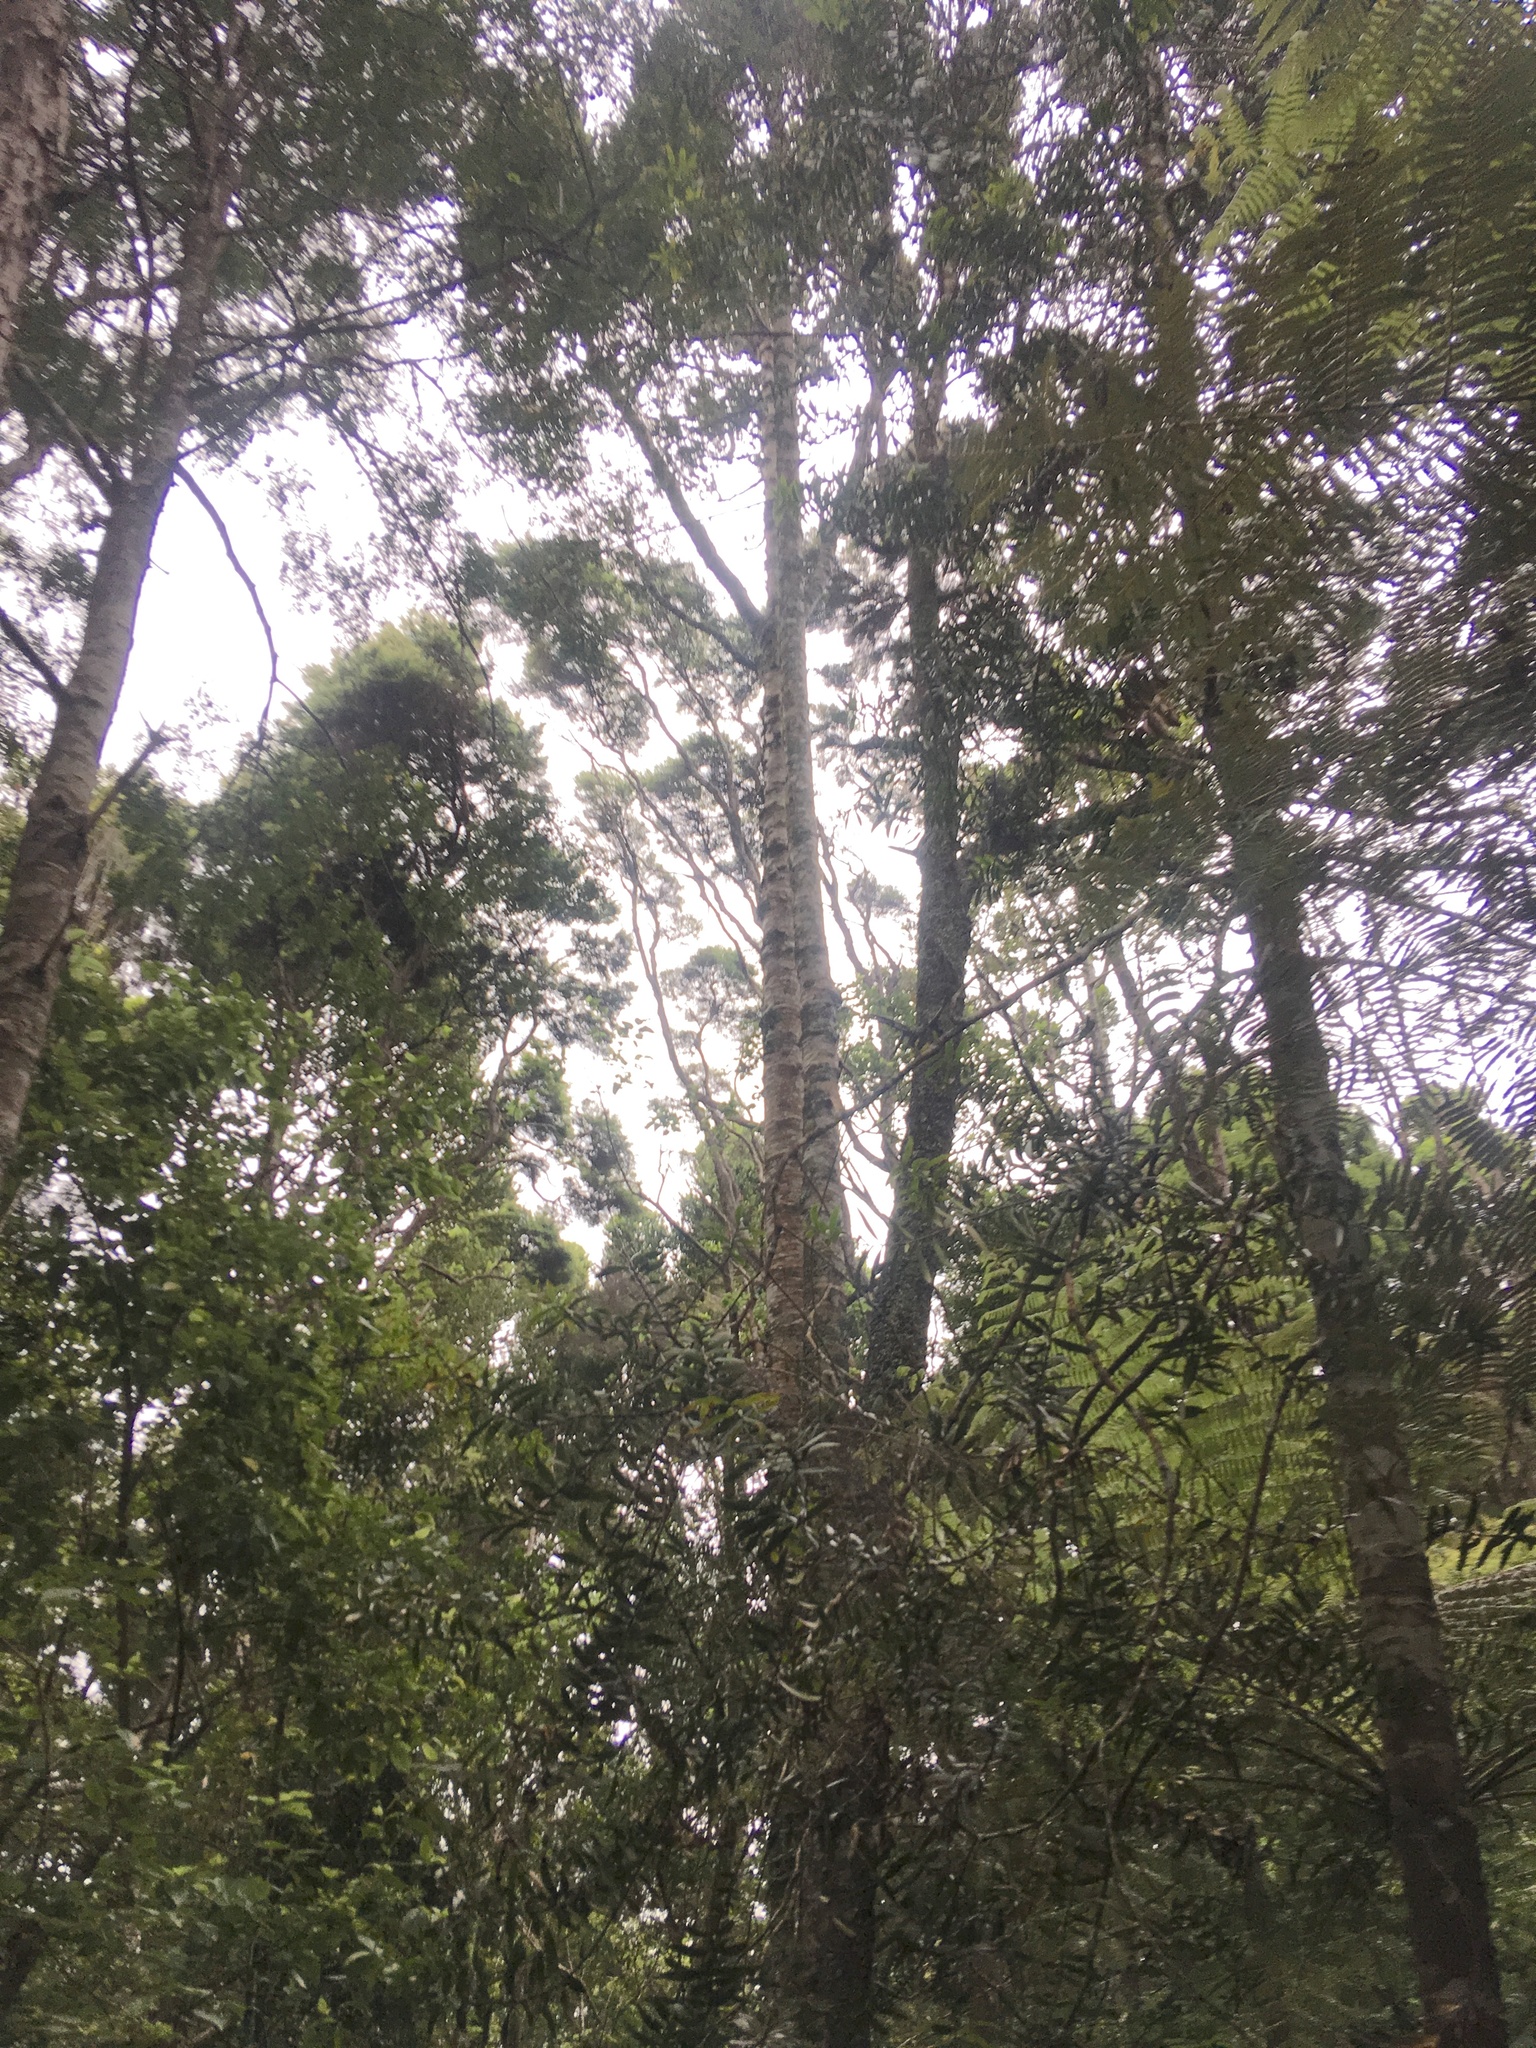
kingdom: Plantae
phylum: Tracheophyta
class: Pinopsida
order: Pinales
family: Araucariaceae
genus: Agathis
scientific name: Agathis australis
